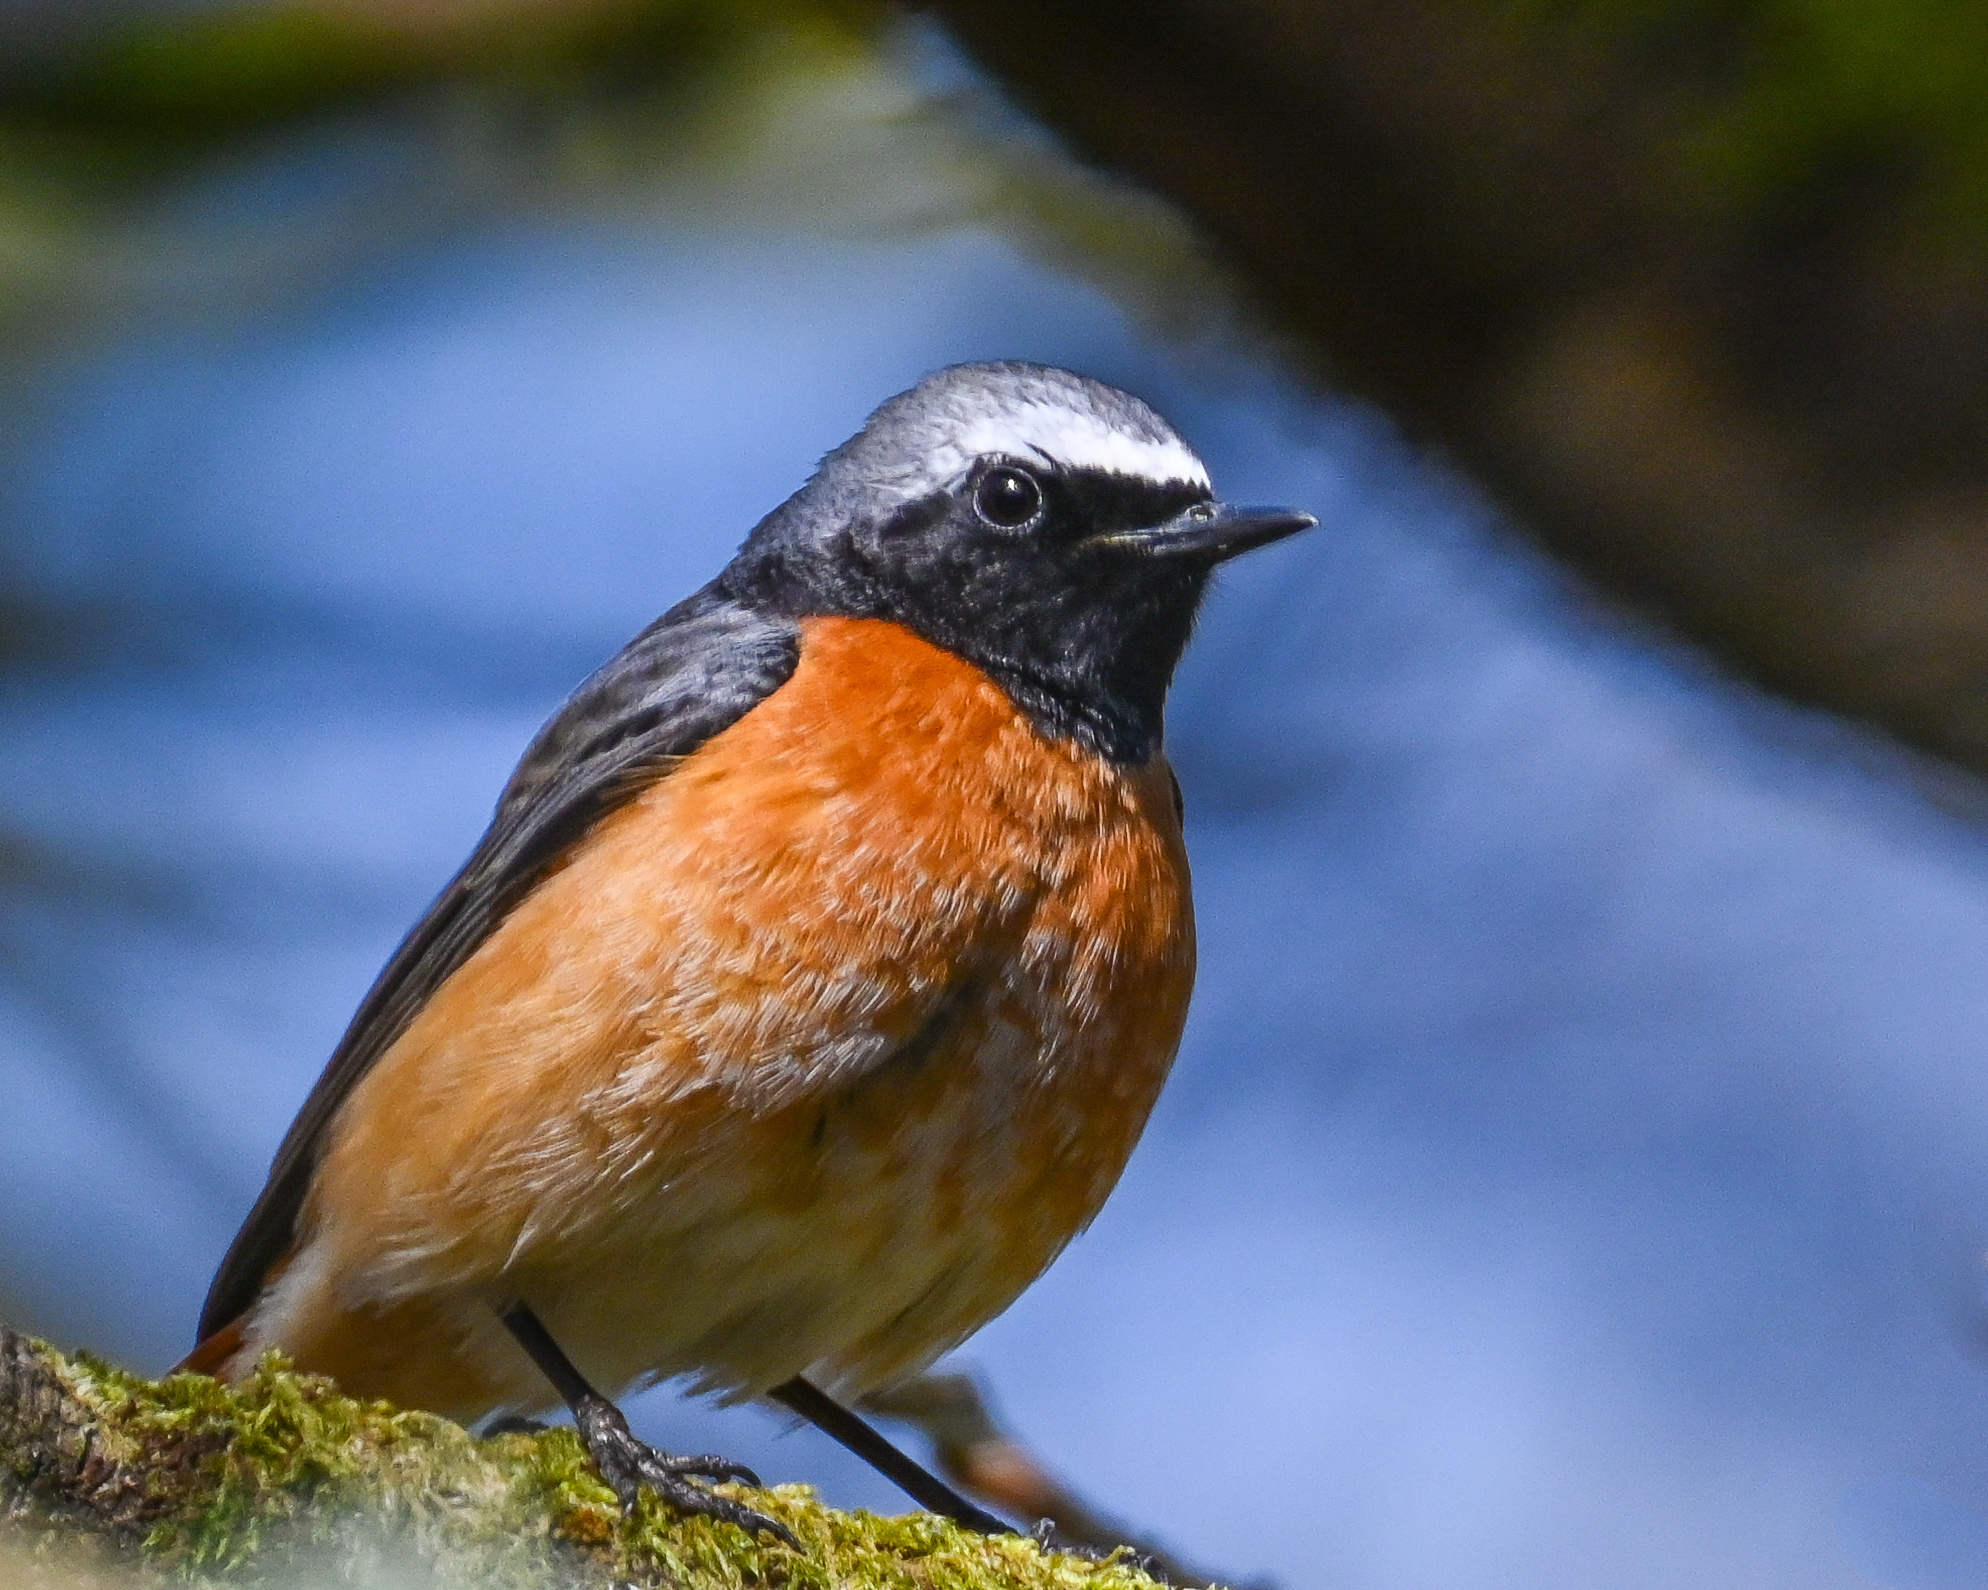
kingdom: Animalia
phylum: Chordata
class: Aves
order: Passeriformes
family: Muscicapidae
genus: Phoenicurus
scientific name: Phoenicurus phoenicurus
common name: Common redstart
